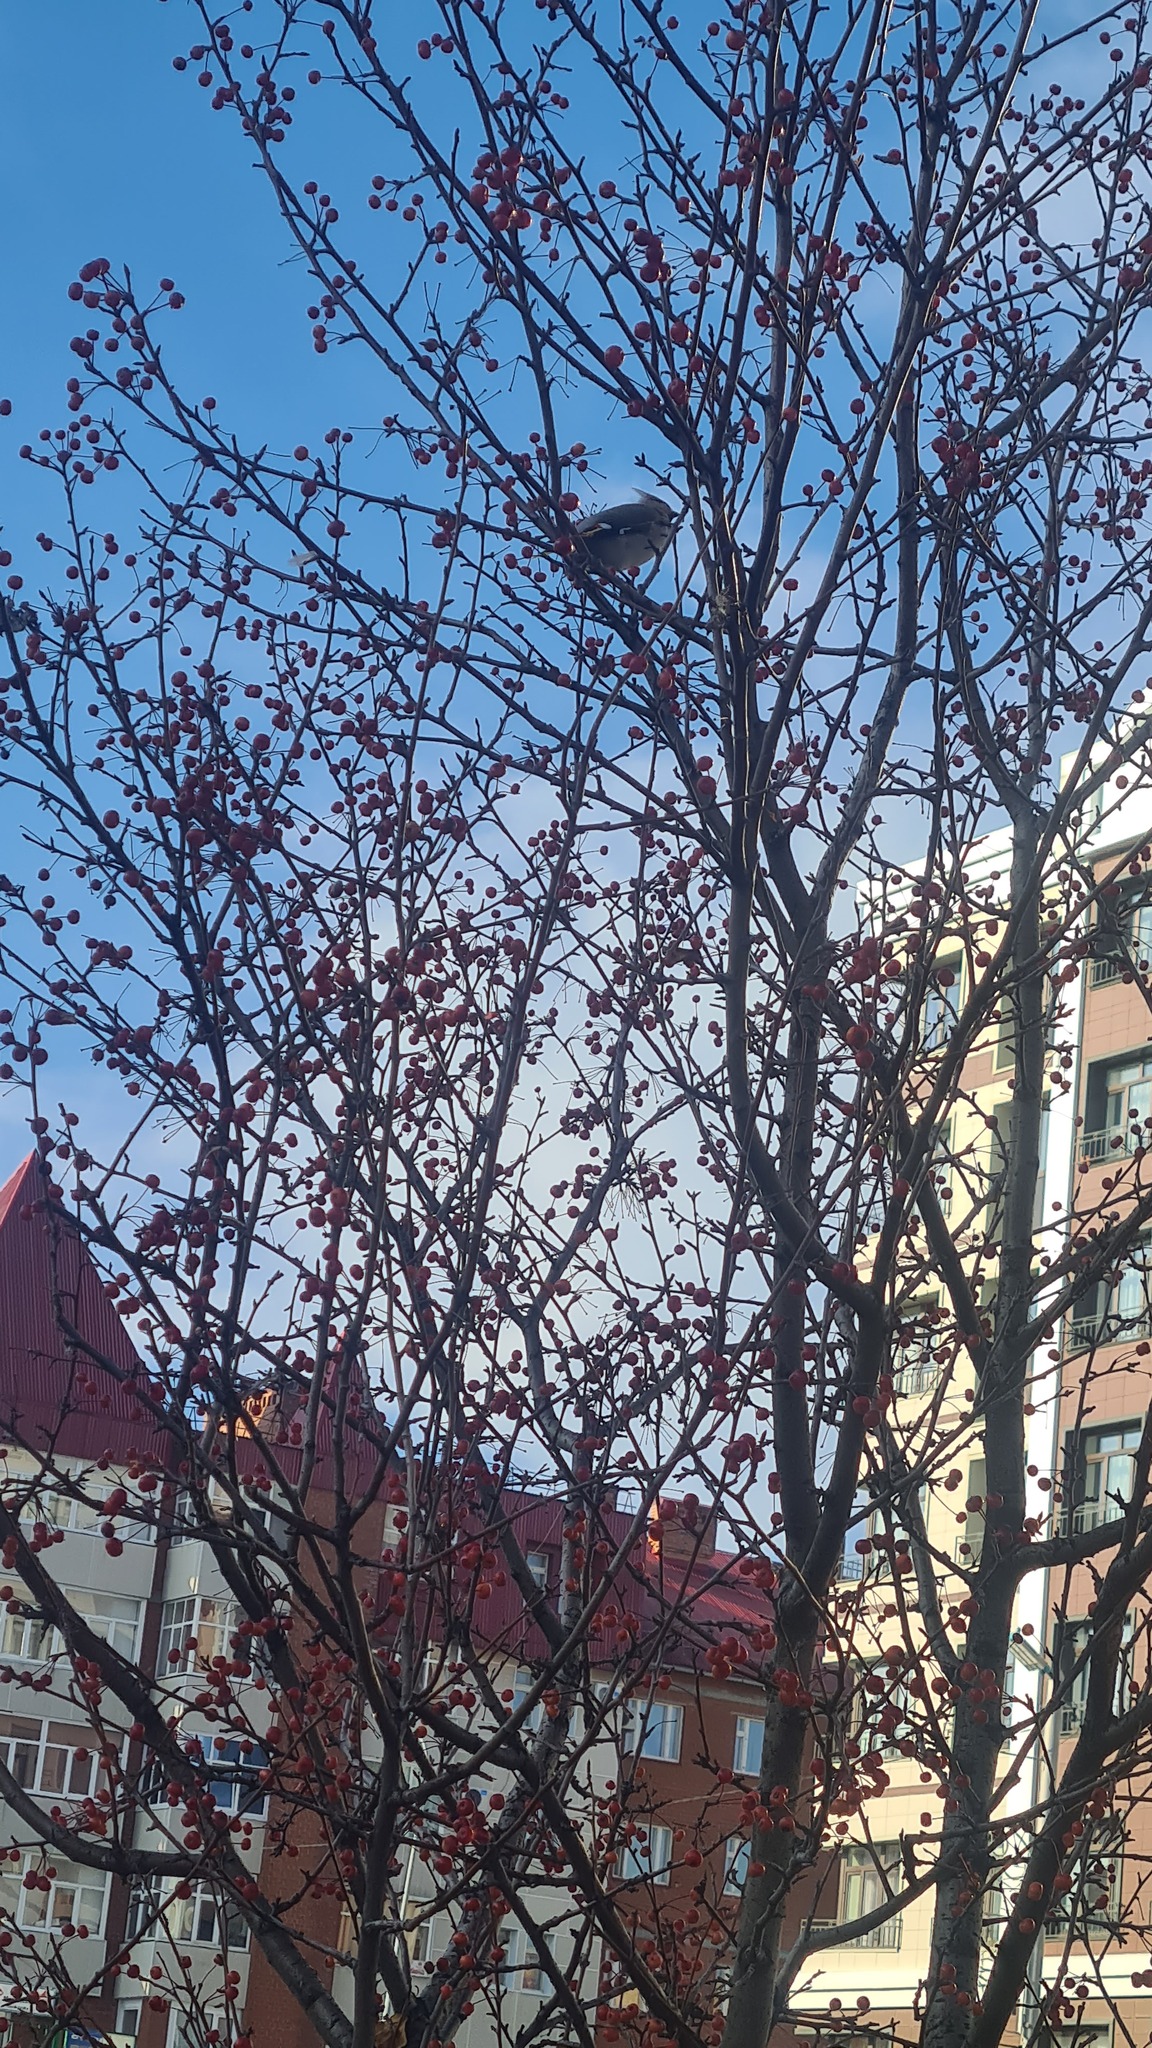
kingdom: Animalia
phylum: Chordata
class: Aves
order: Passeriformes
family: Bombycillidae
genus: Bombycilla
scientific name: Bombycilla garrulus
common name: Bohemian waxwing
